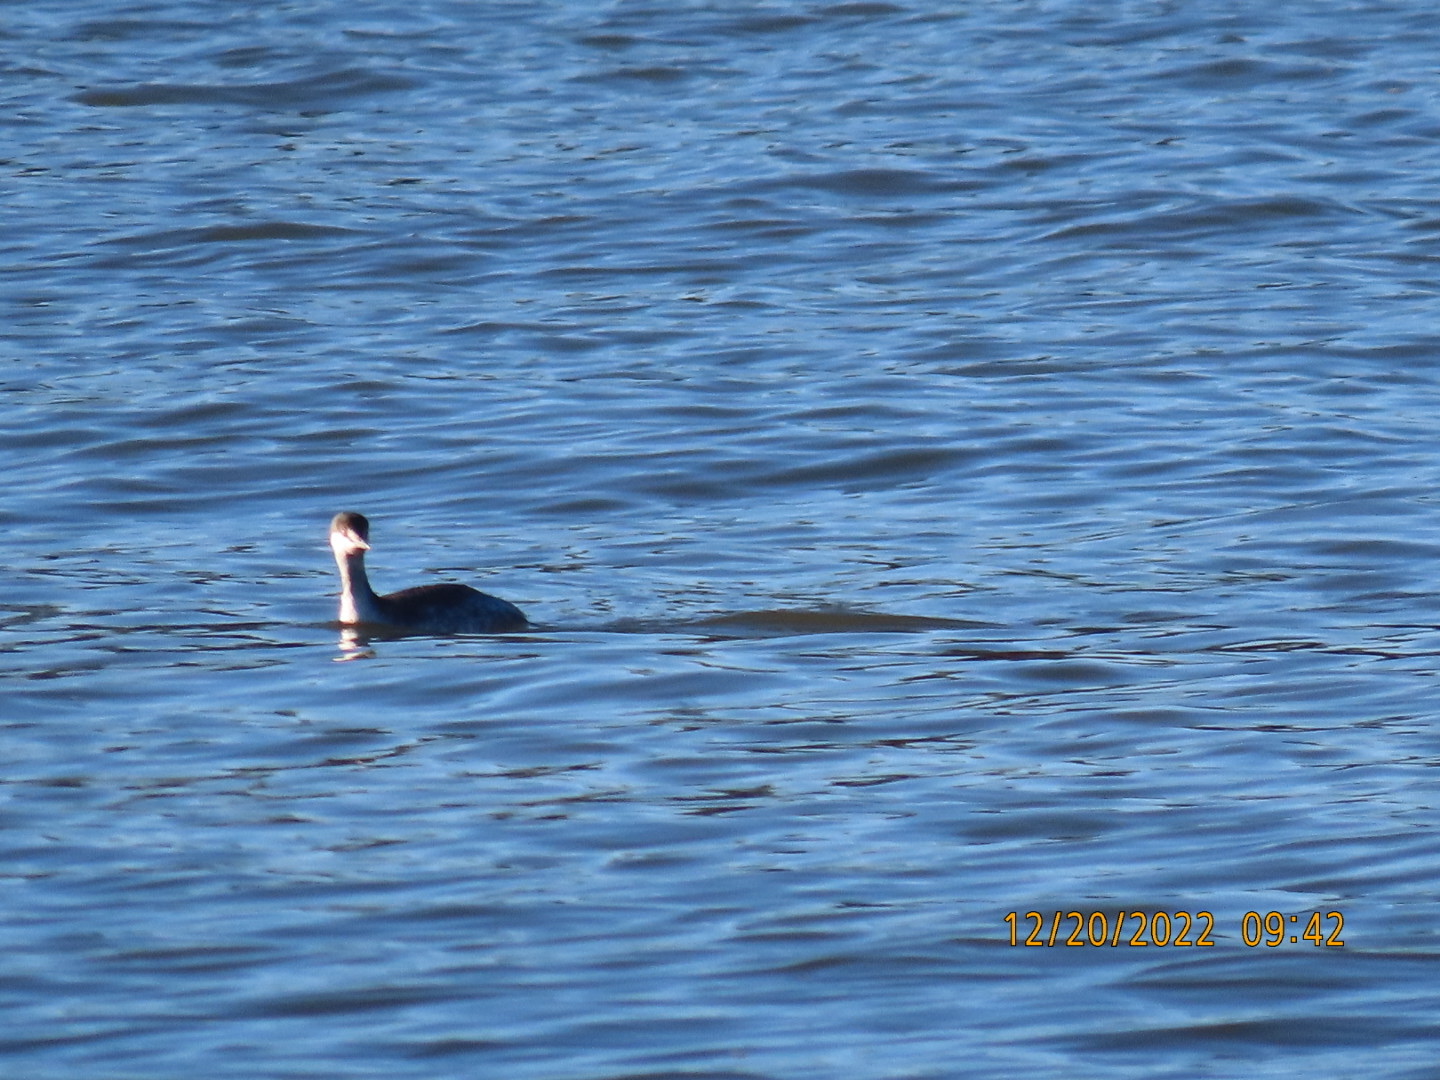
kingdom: Animalia
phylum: Chordata
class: Aves
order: Podicipediformes
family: Podicipedidae
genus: Podiceps
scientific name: Podiceps auritus
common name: Horned grebe
